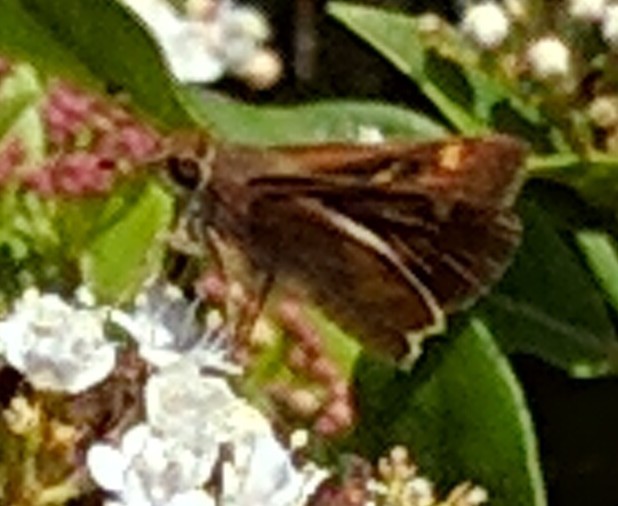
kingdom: Animalia
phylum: Arthropoda
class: Insecta
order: Lepidoptera
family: Hesperiidae
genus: Lon
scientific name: Lon melane
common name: Umber skipper
